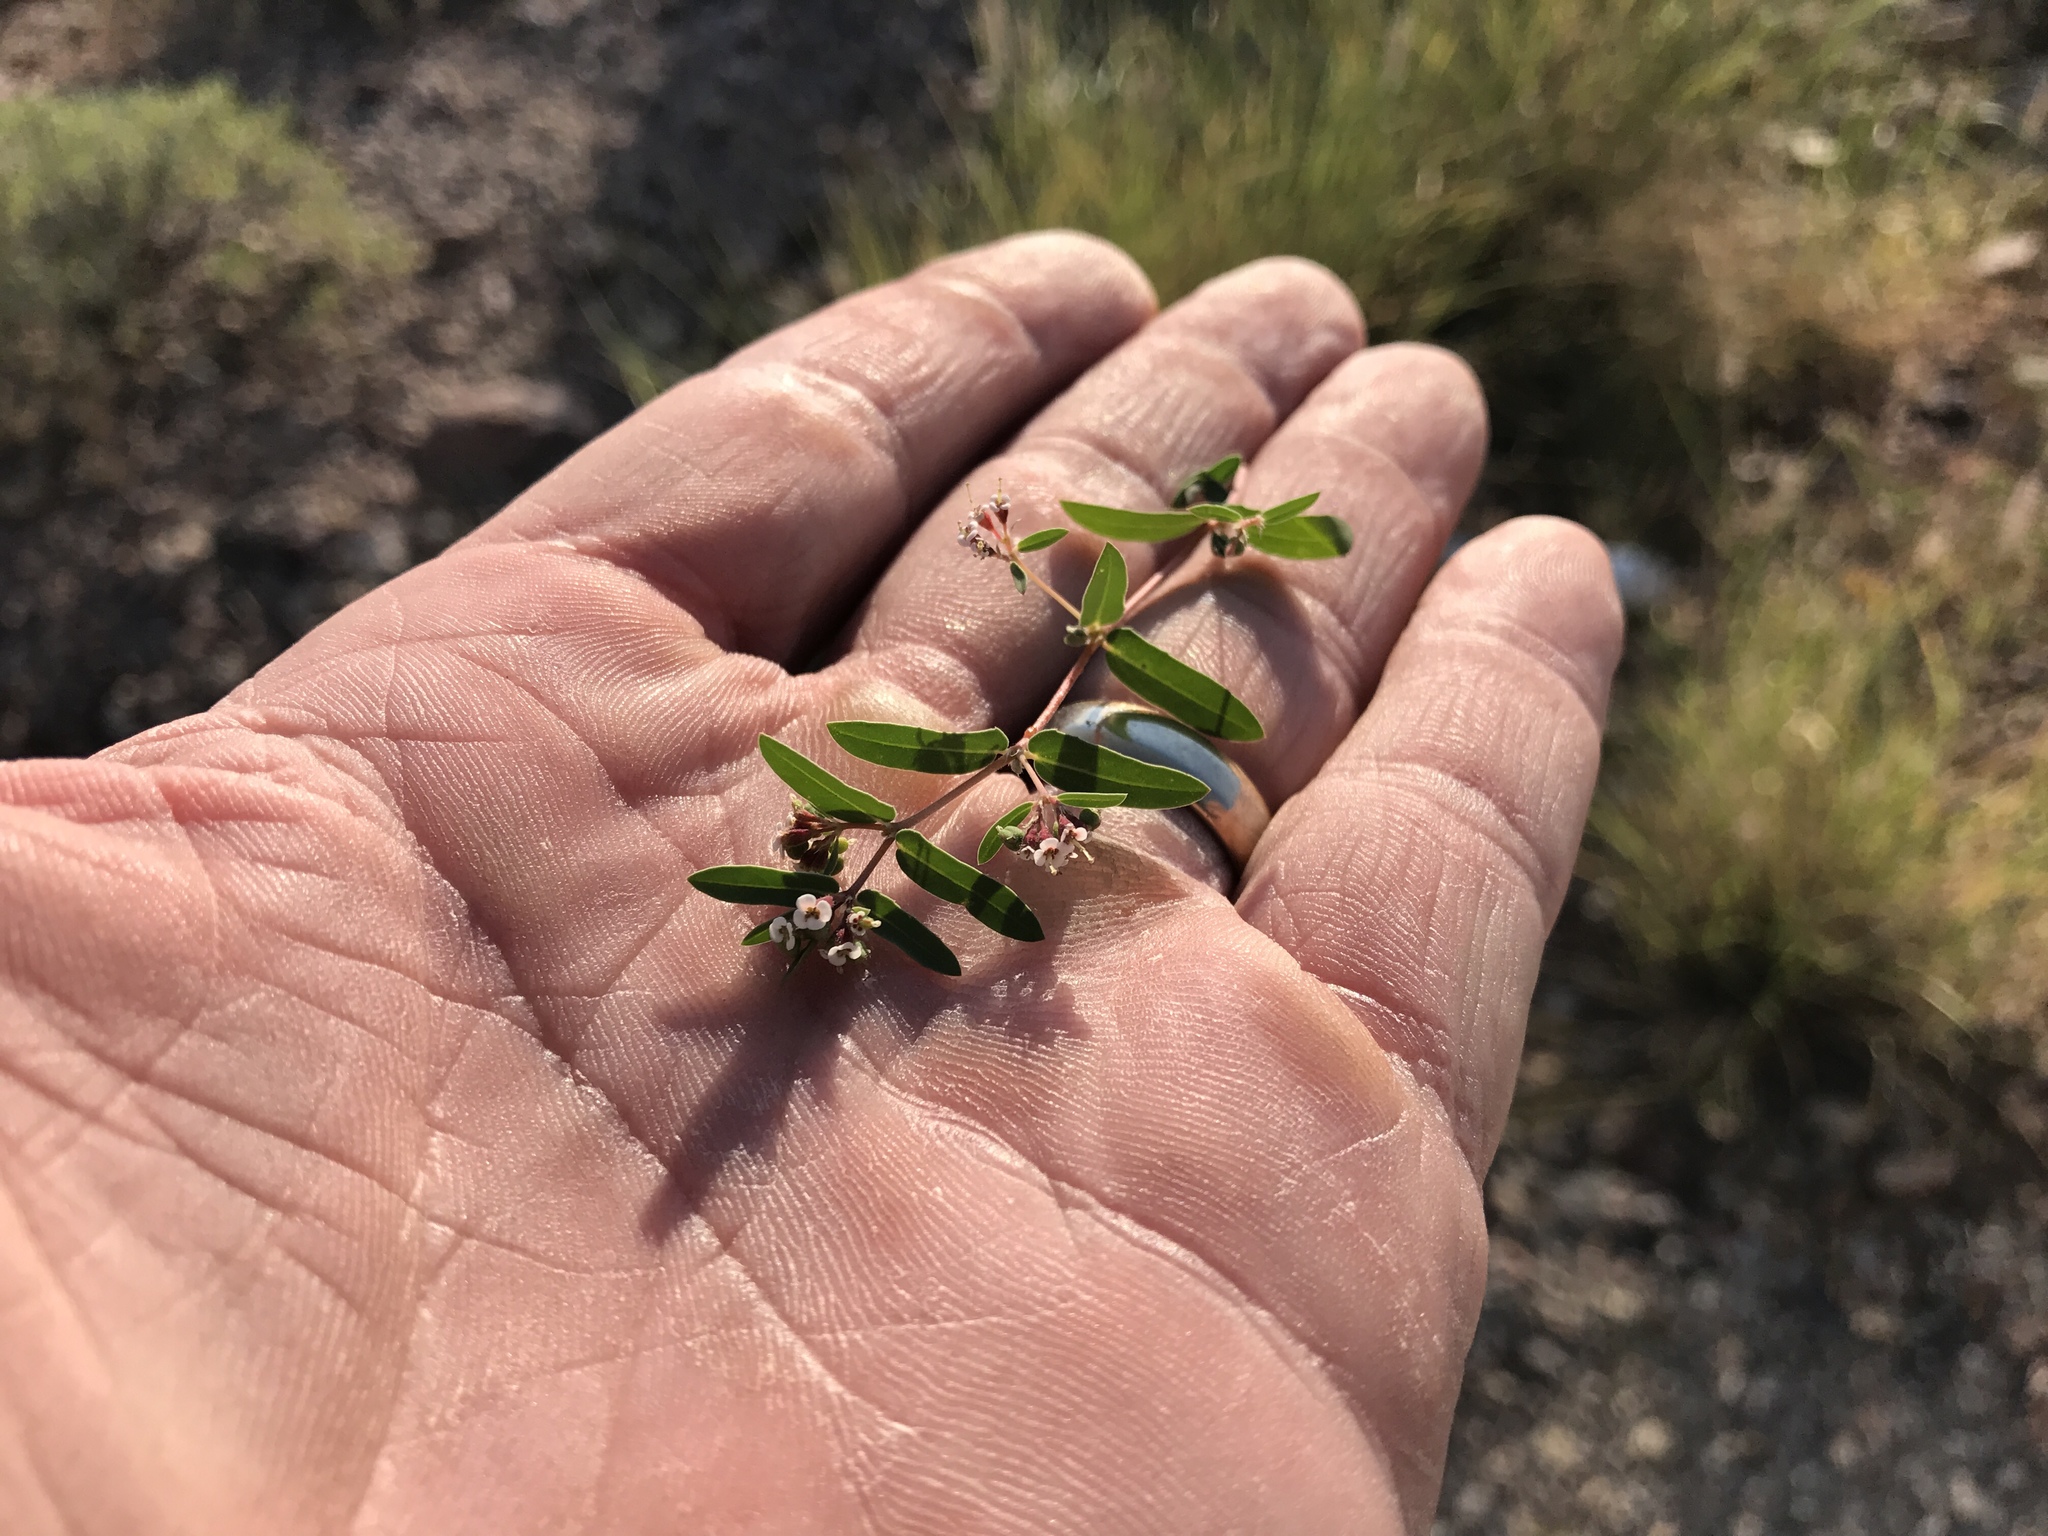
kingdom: Plantae
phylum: Tracheophyta
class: Magnoliopsida
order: Malpighiales
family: Euphorbiaceae
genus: Euphorbia
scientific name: Euphorbia capitellata
